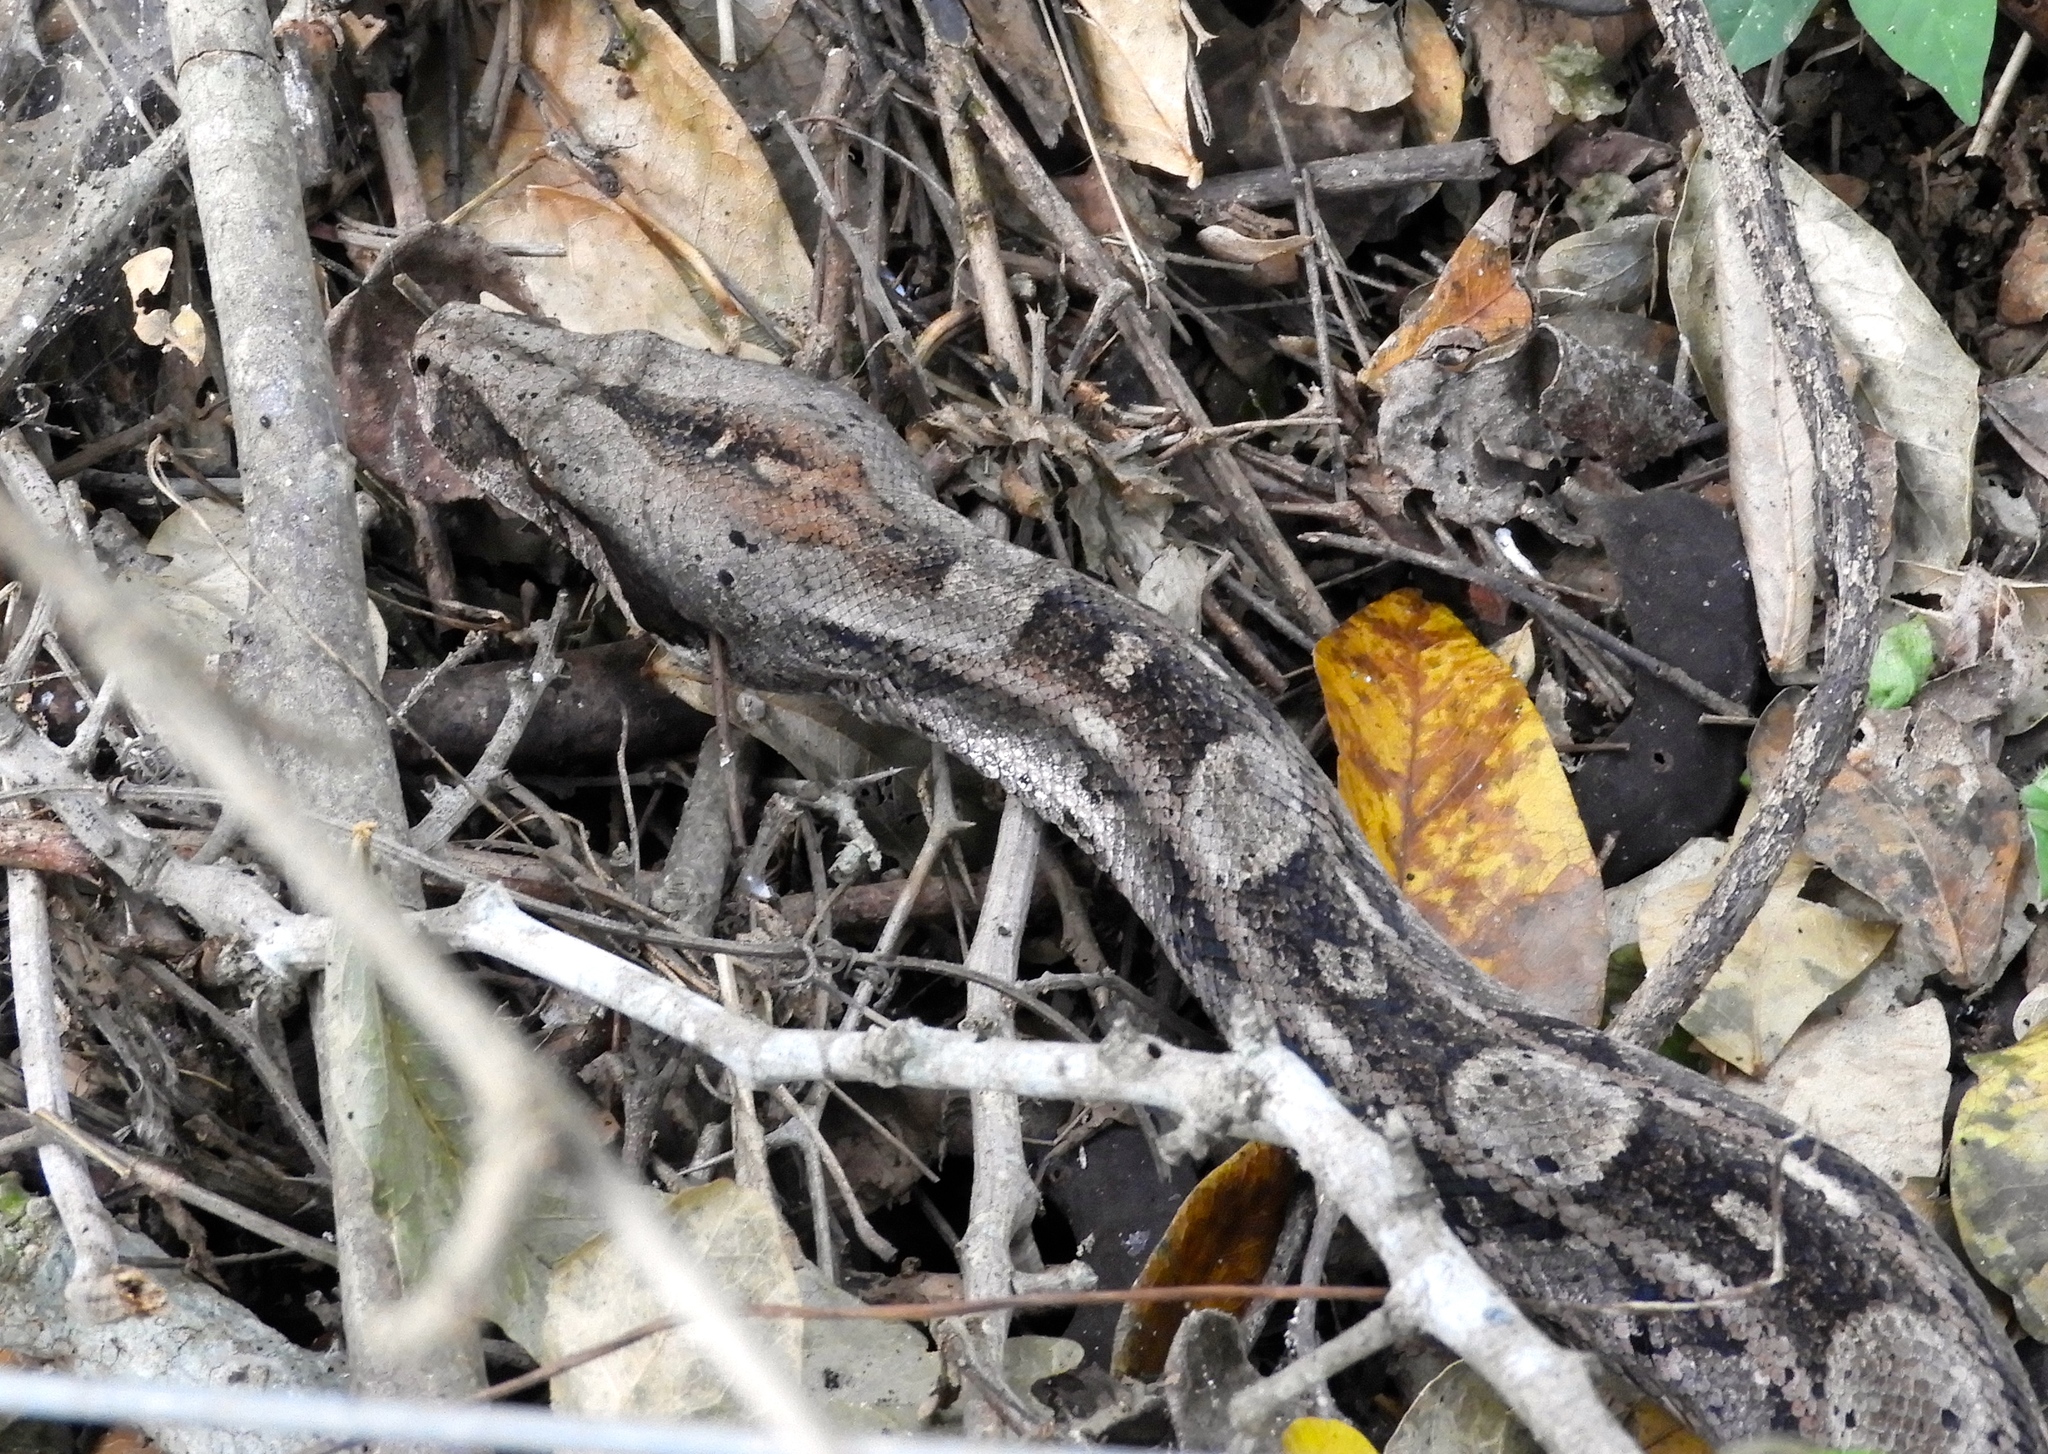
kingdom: Animalia
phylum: Chordata
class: Squamata
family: Boidae
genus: Boa
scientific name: Boa
